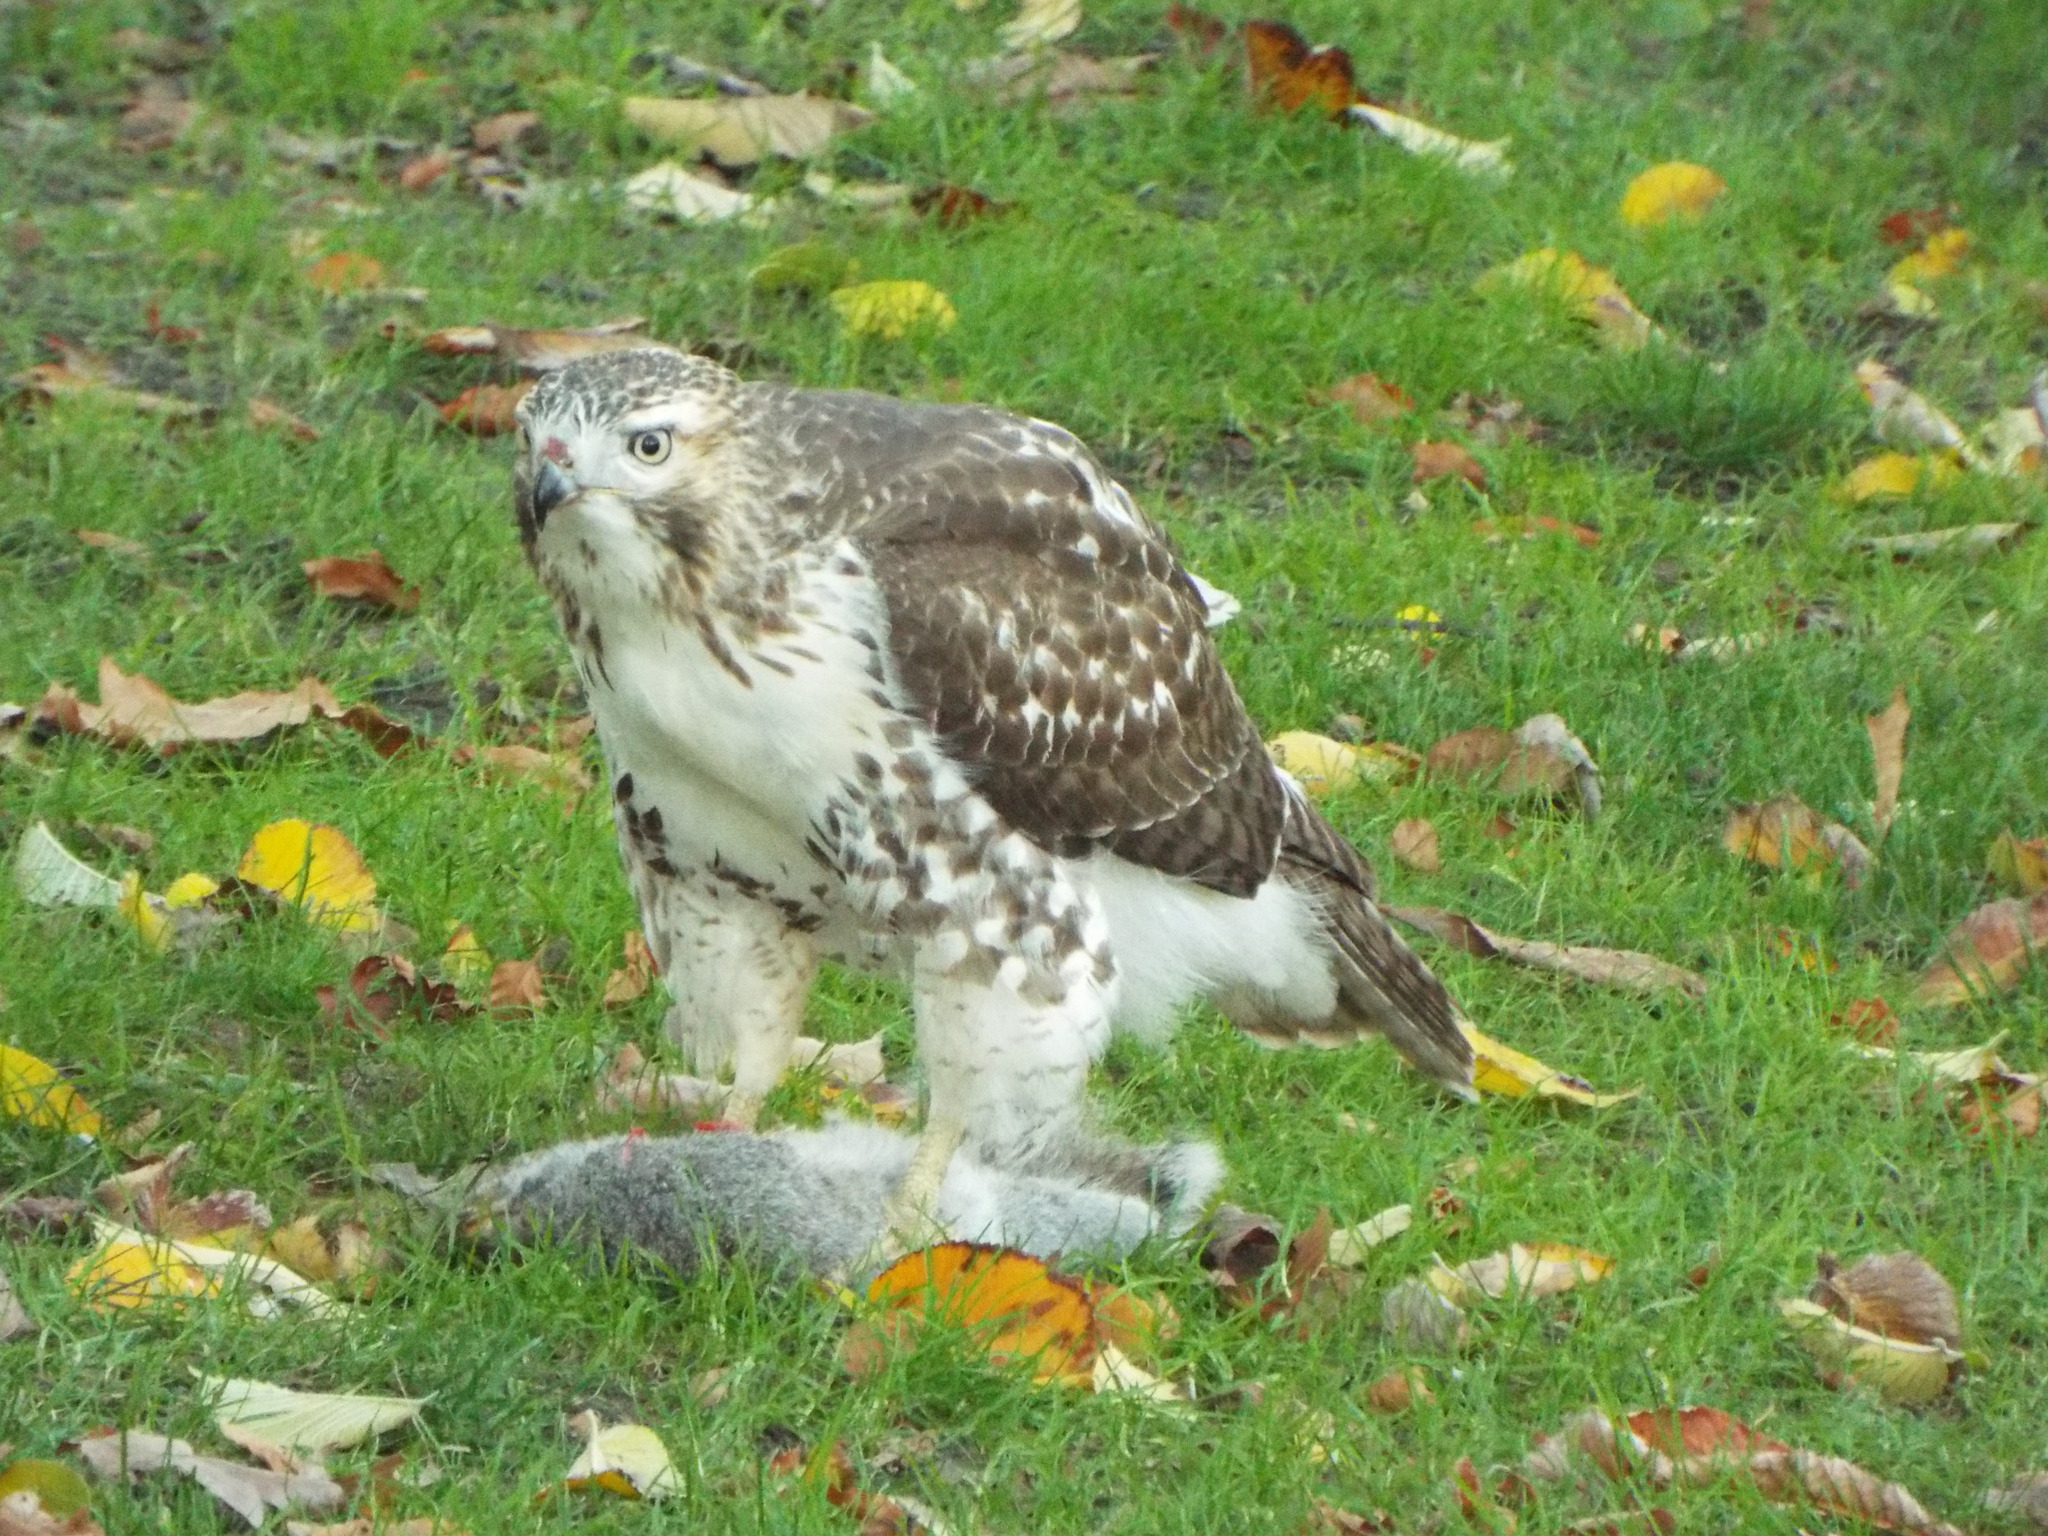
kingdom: Animalia
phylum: Chordata
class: Aves
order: Accipitriformes
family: Accipitridae
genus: Buteo
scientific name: Buteo jamaicensis
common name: Red-tailed hawk
